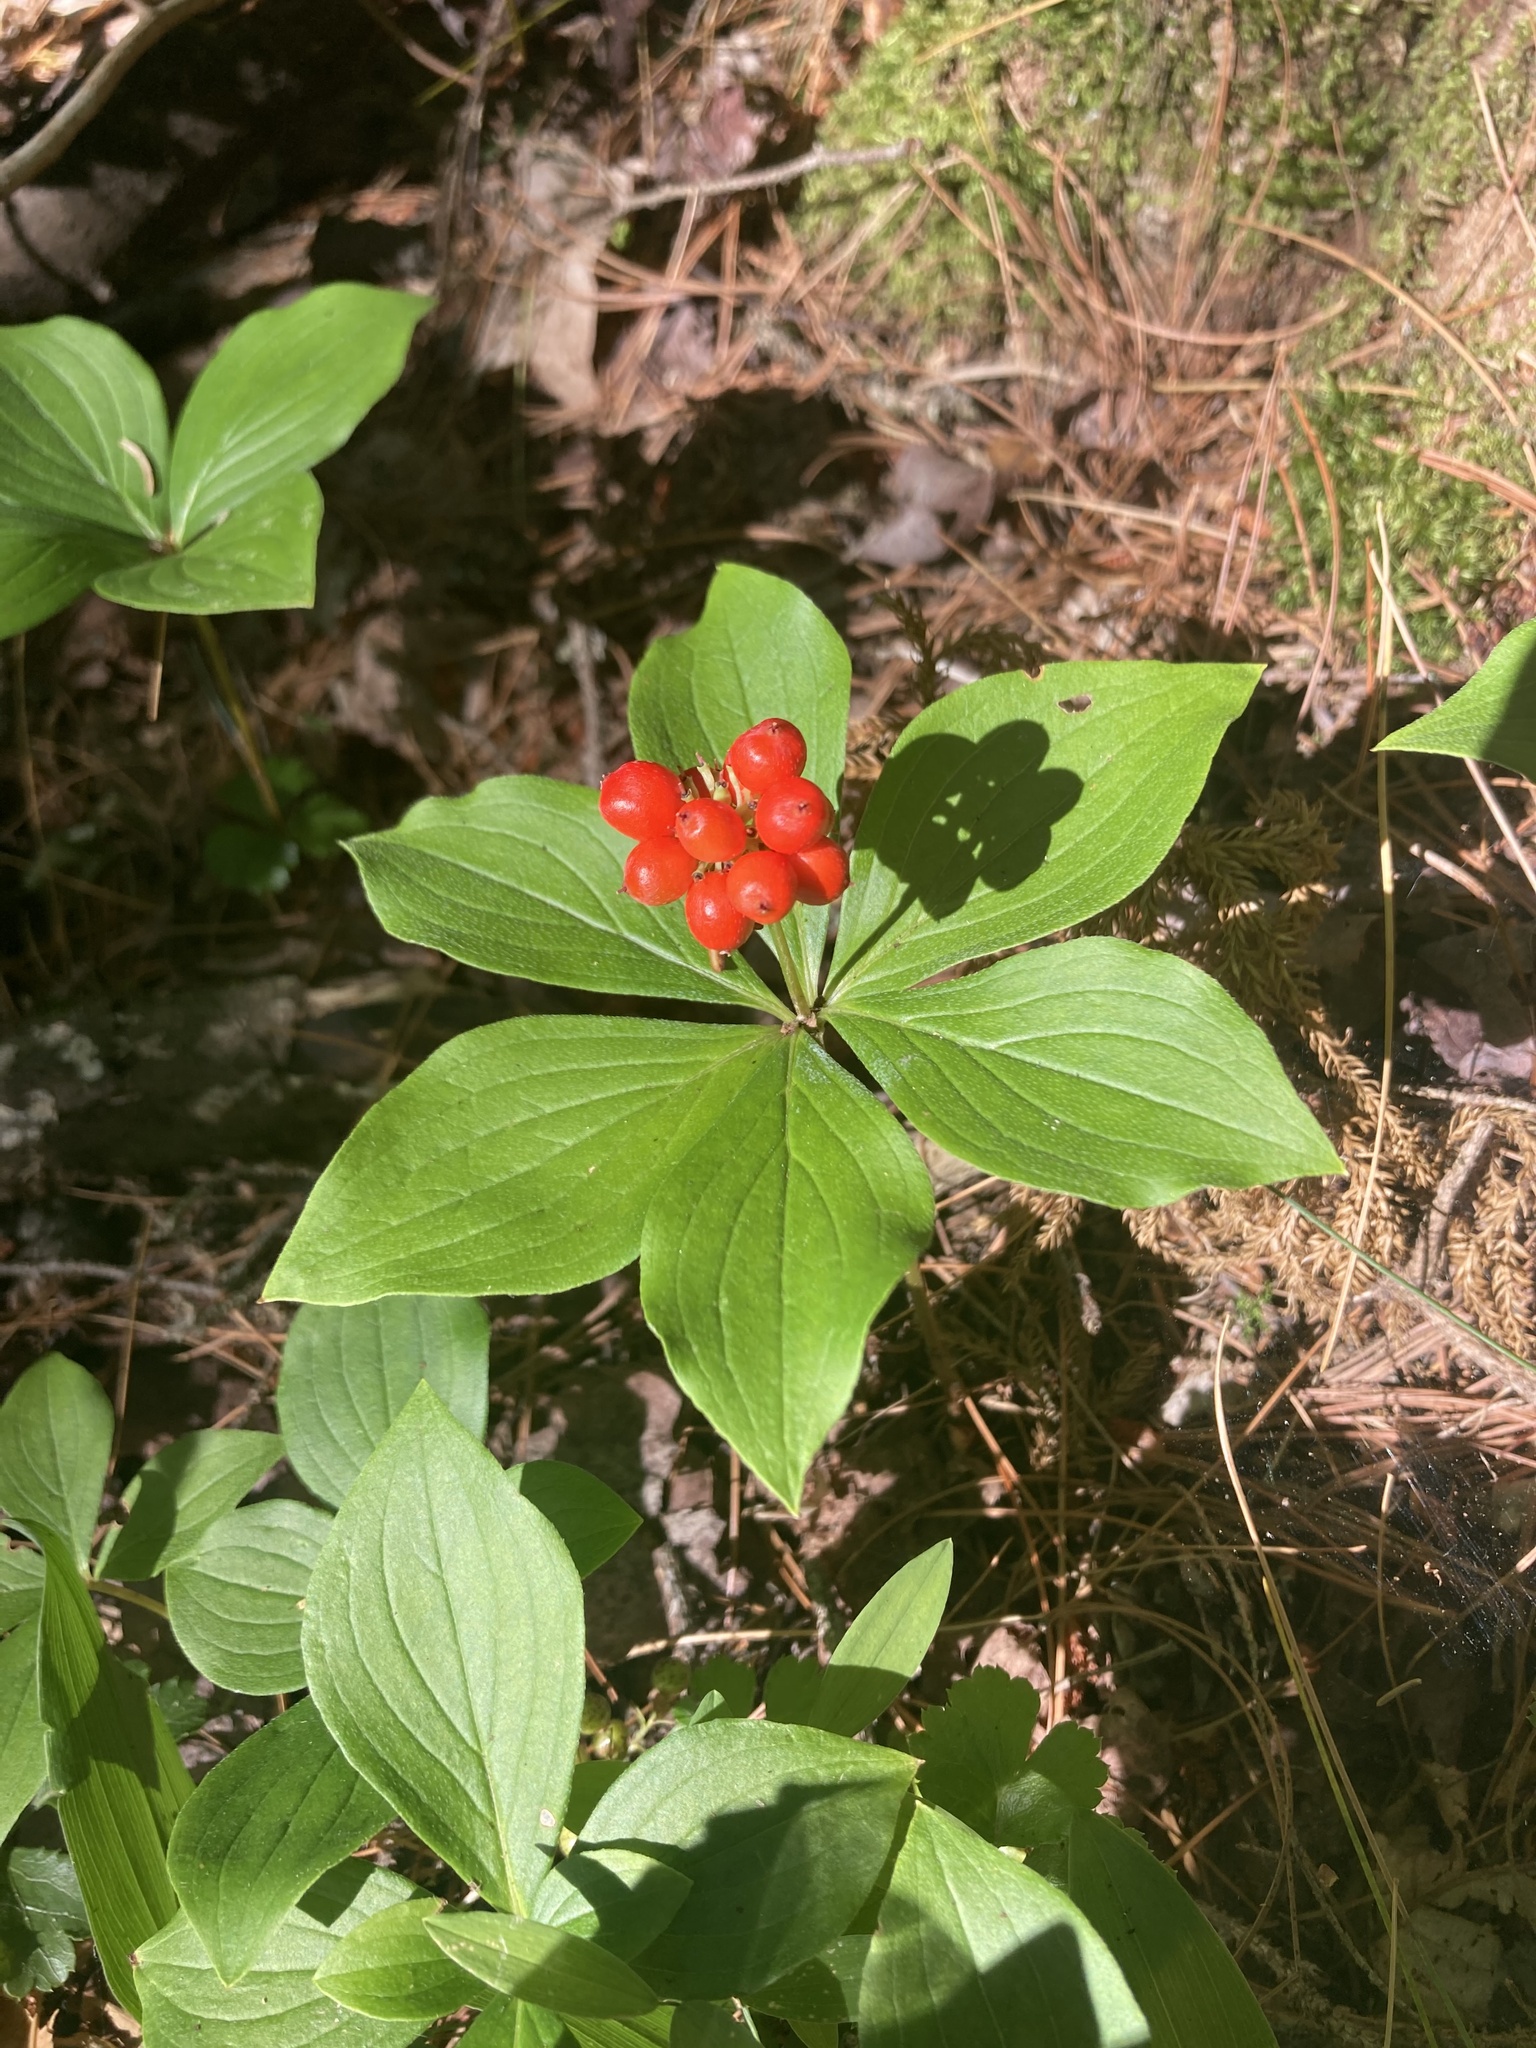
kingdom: Plantae
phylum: Tracheophyta
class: Magnoliopsida
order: Cornales
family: Cornaceae
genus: Cornus
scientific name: Cornus canadensis
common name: Creeping dogwood
